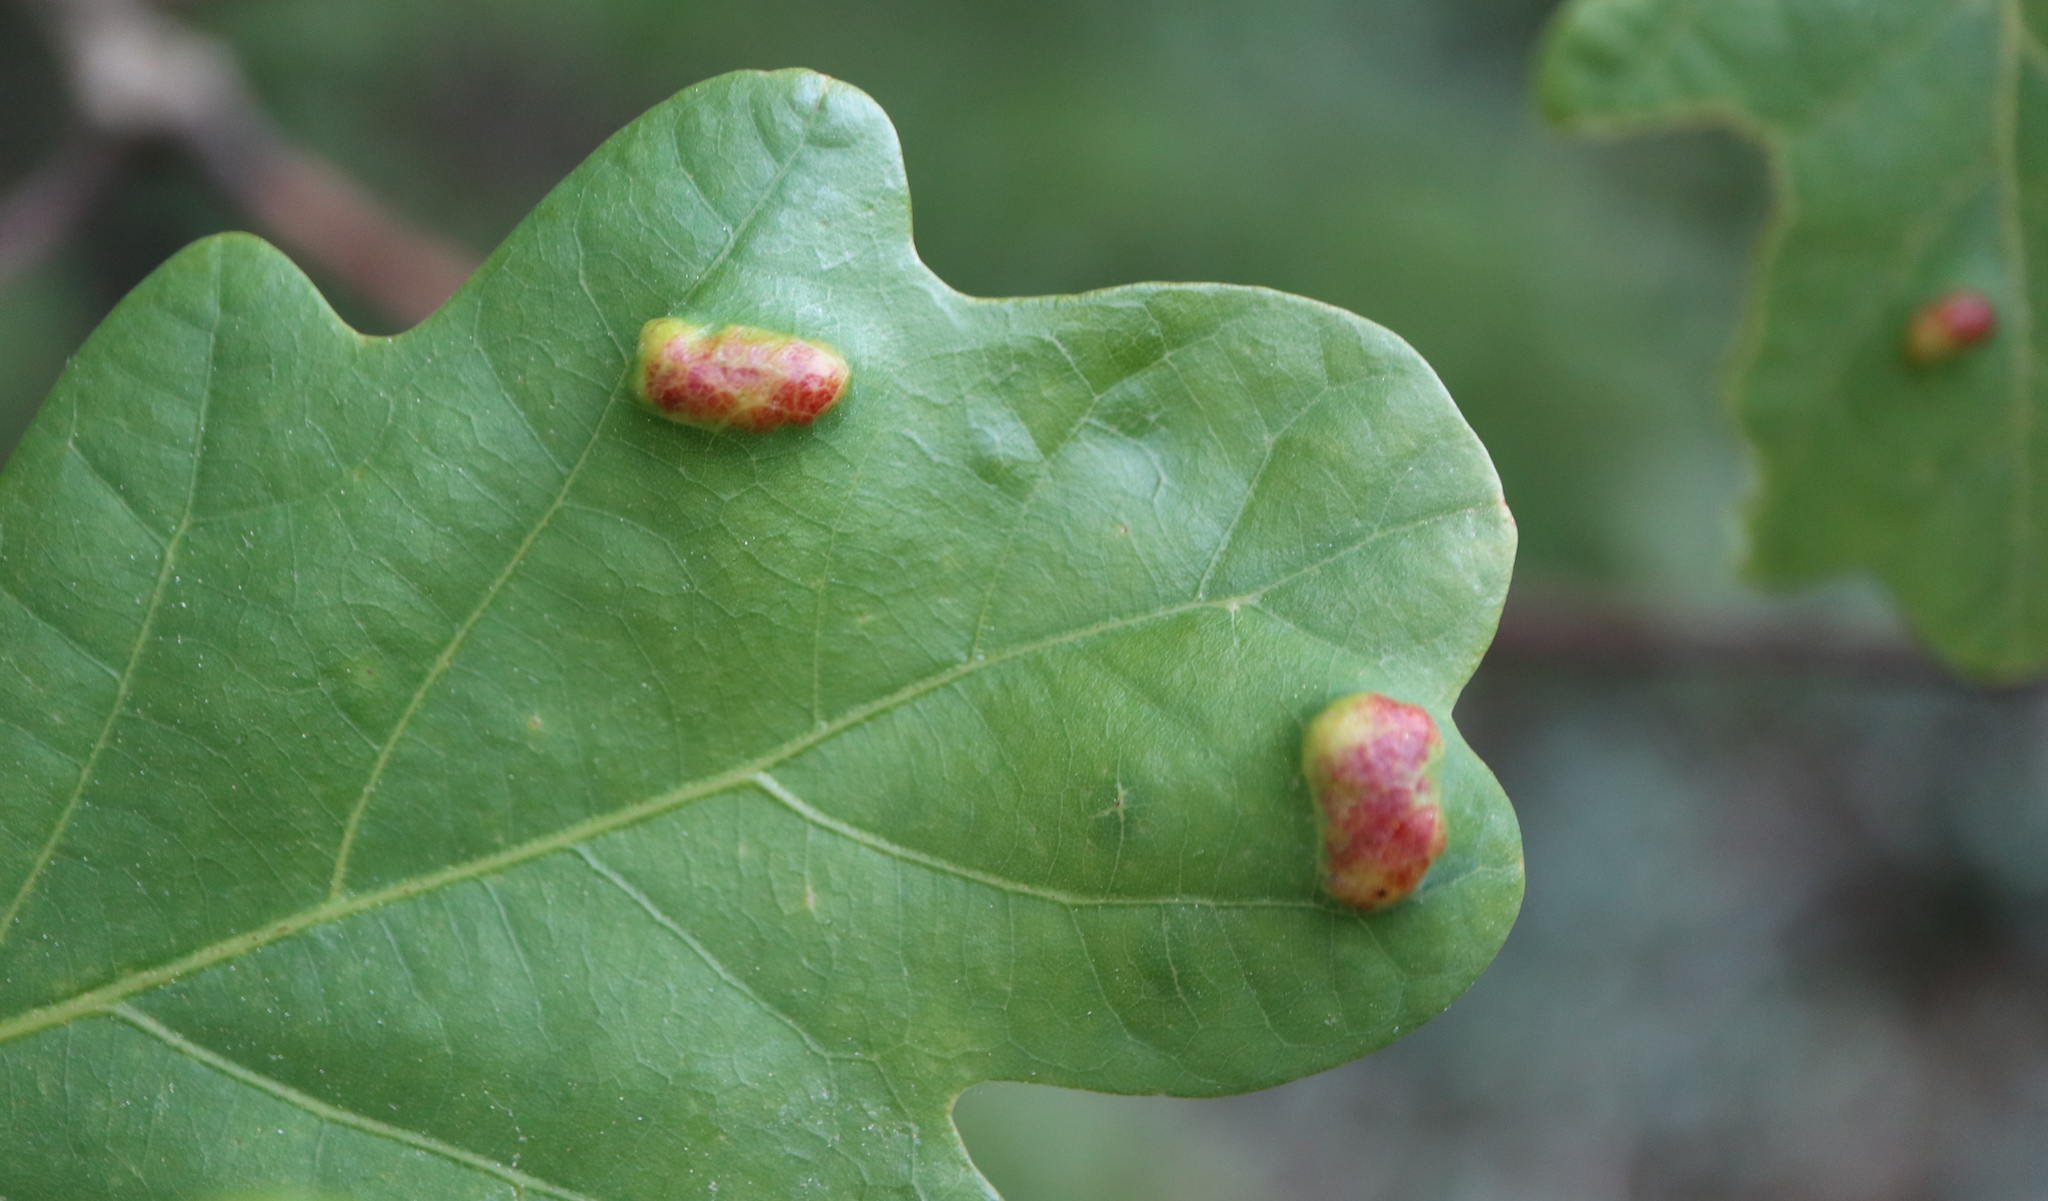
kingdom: Animalia
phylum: Arthropoda
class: Arachnida
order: Trombidiformes
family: Eriophyidae
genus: Aceria
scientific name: Aceria
